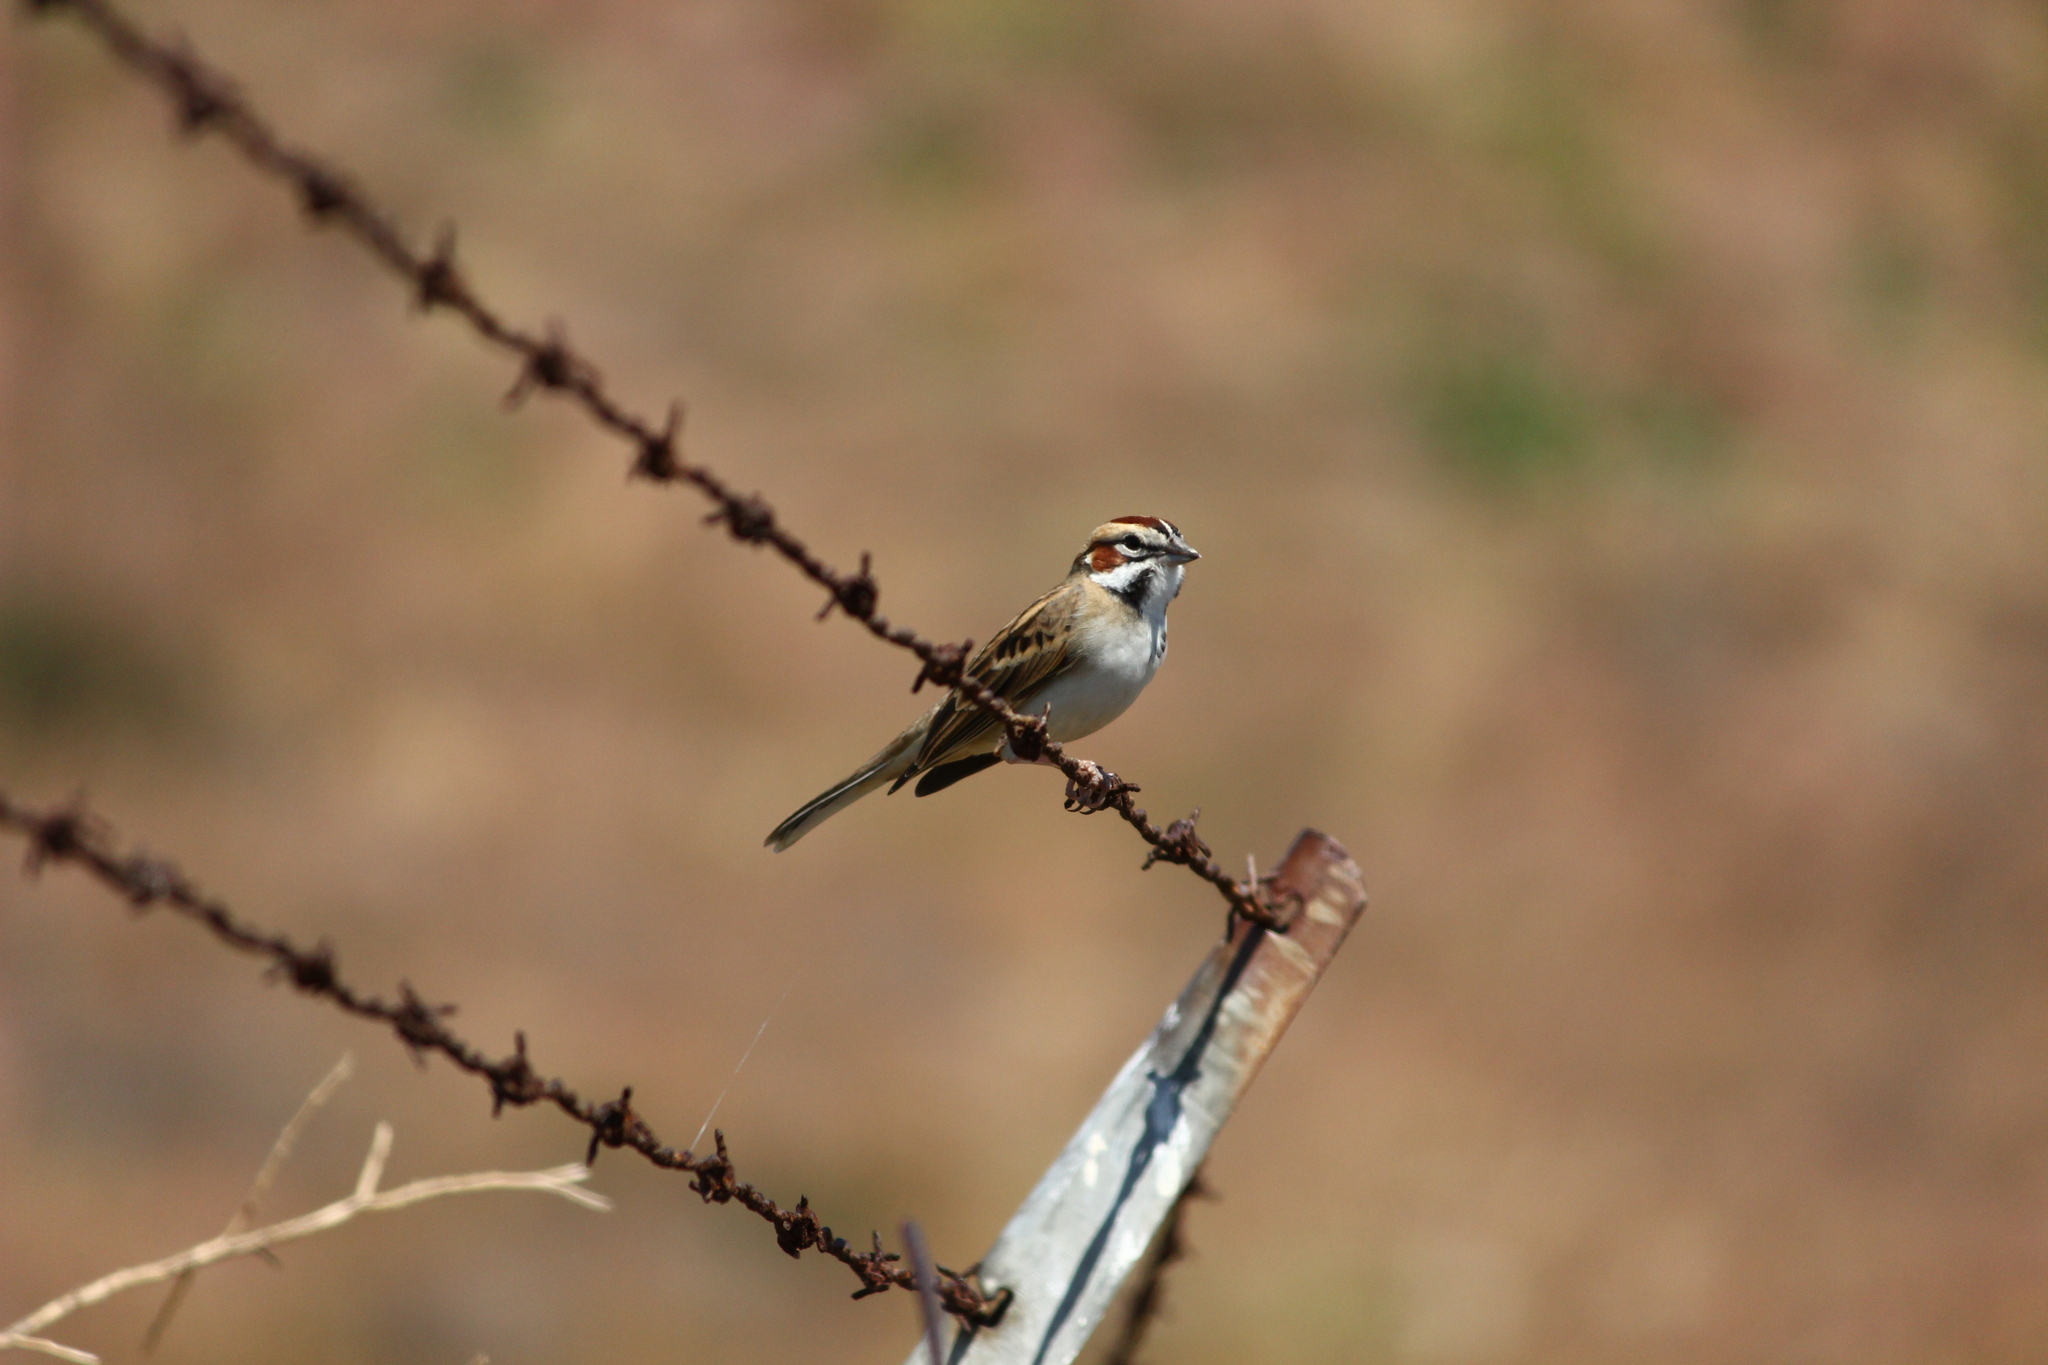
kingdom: Animalia
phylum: Chordata
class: Aves
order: Passeriformes
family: Passerellidae
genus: Chondestes
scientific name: Chondestes grammacus
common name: Lark sparrow
